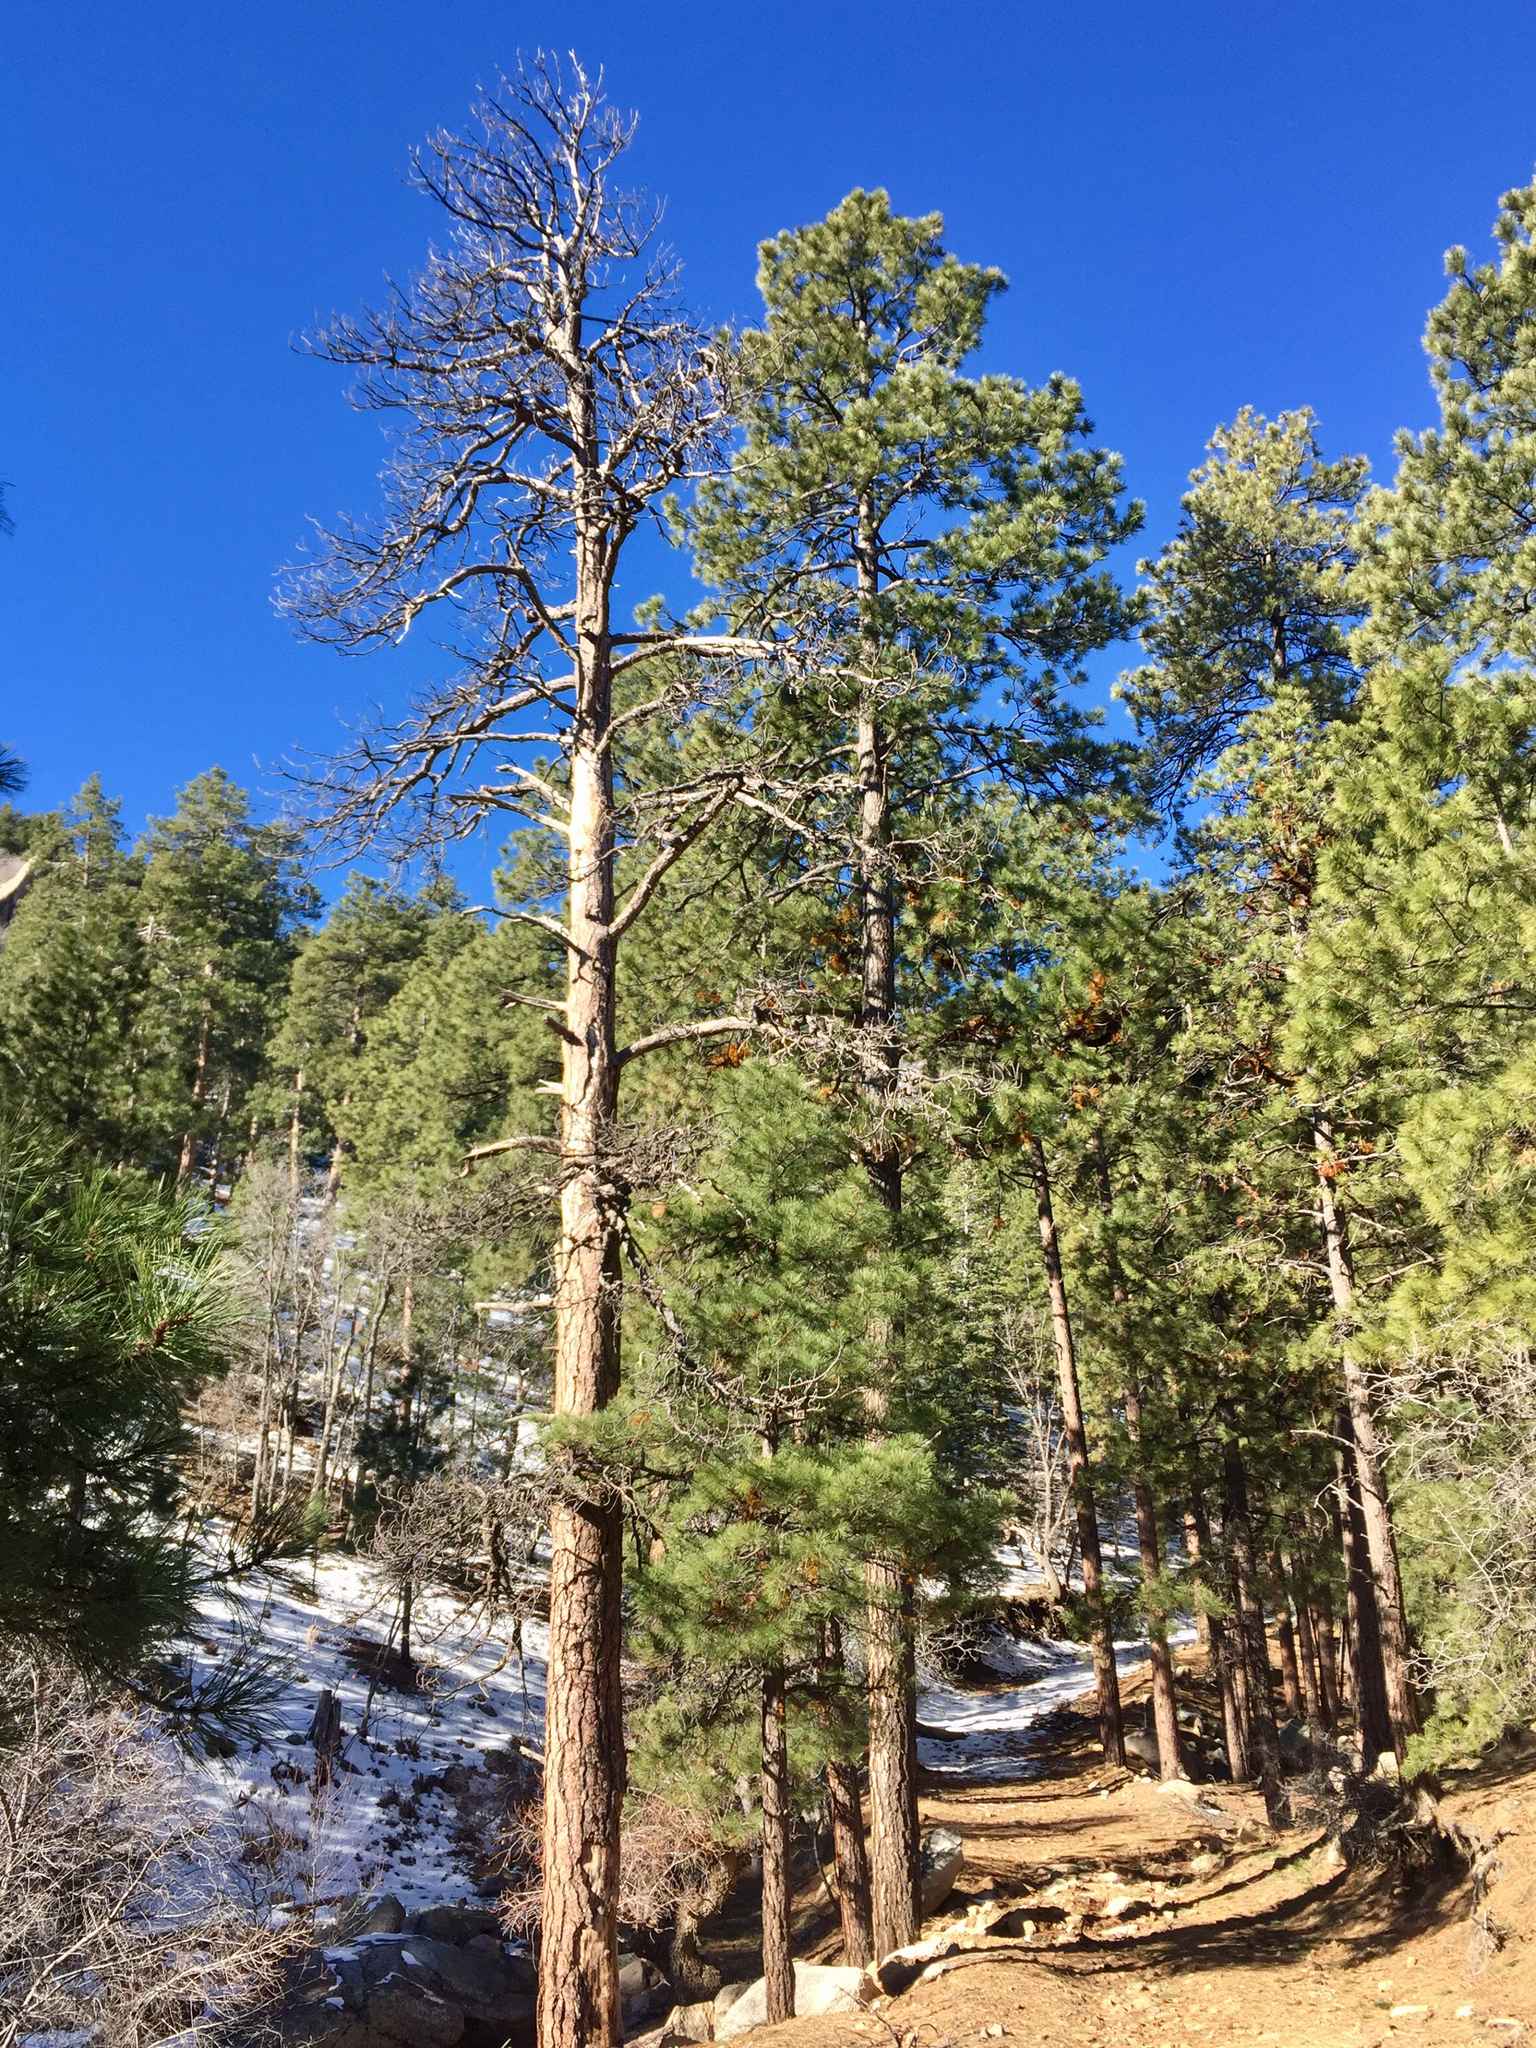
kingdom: Plantae
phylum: Tracheophyta
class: Pinopsida
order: Pinales
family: Pinaceae
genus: Pinus
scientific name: Pinus ponderosa
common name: Western yellow-pine
